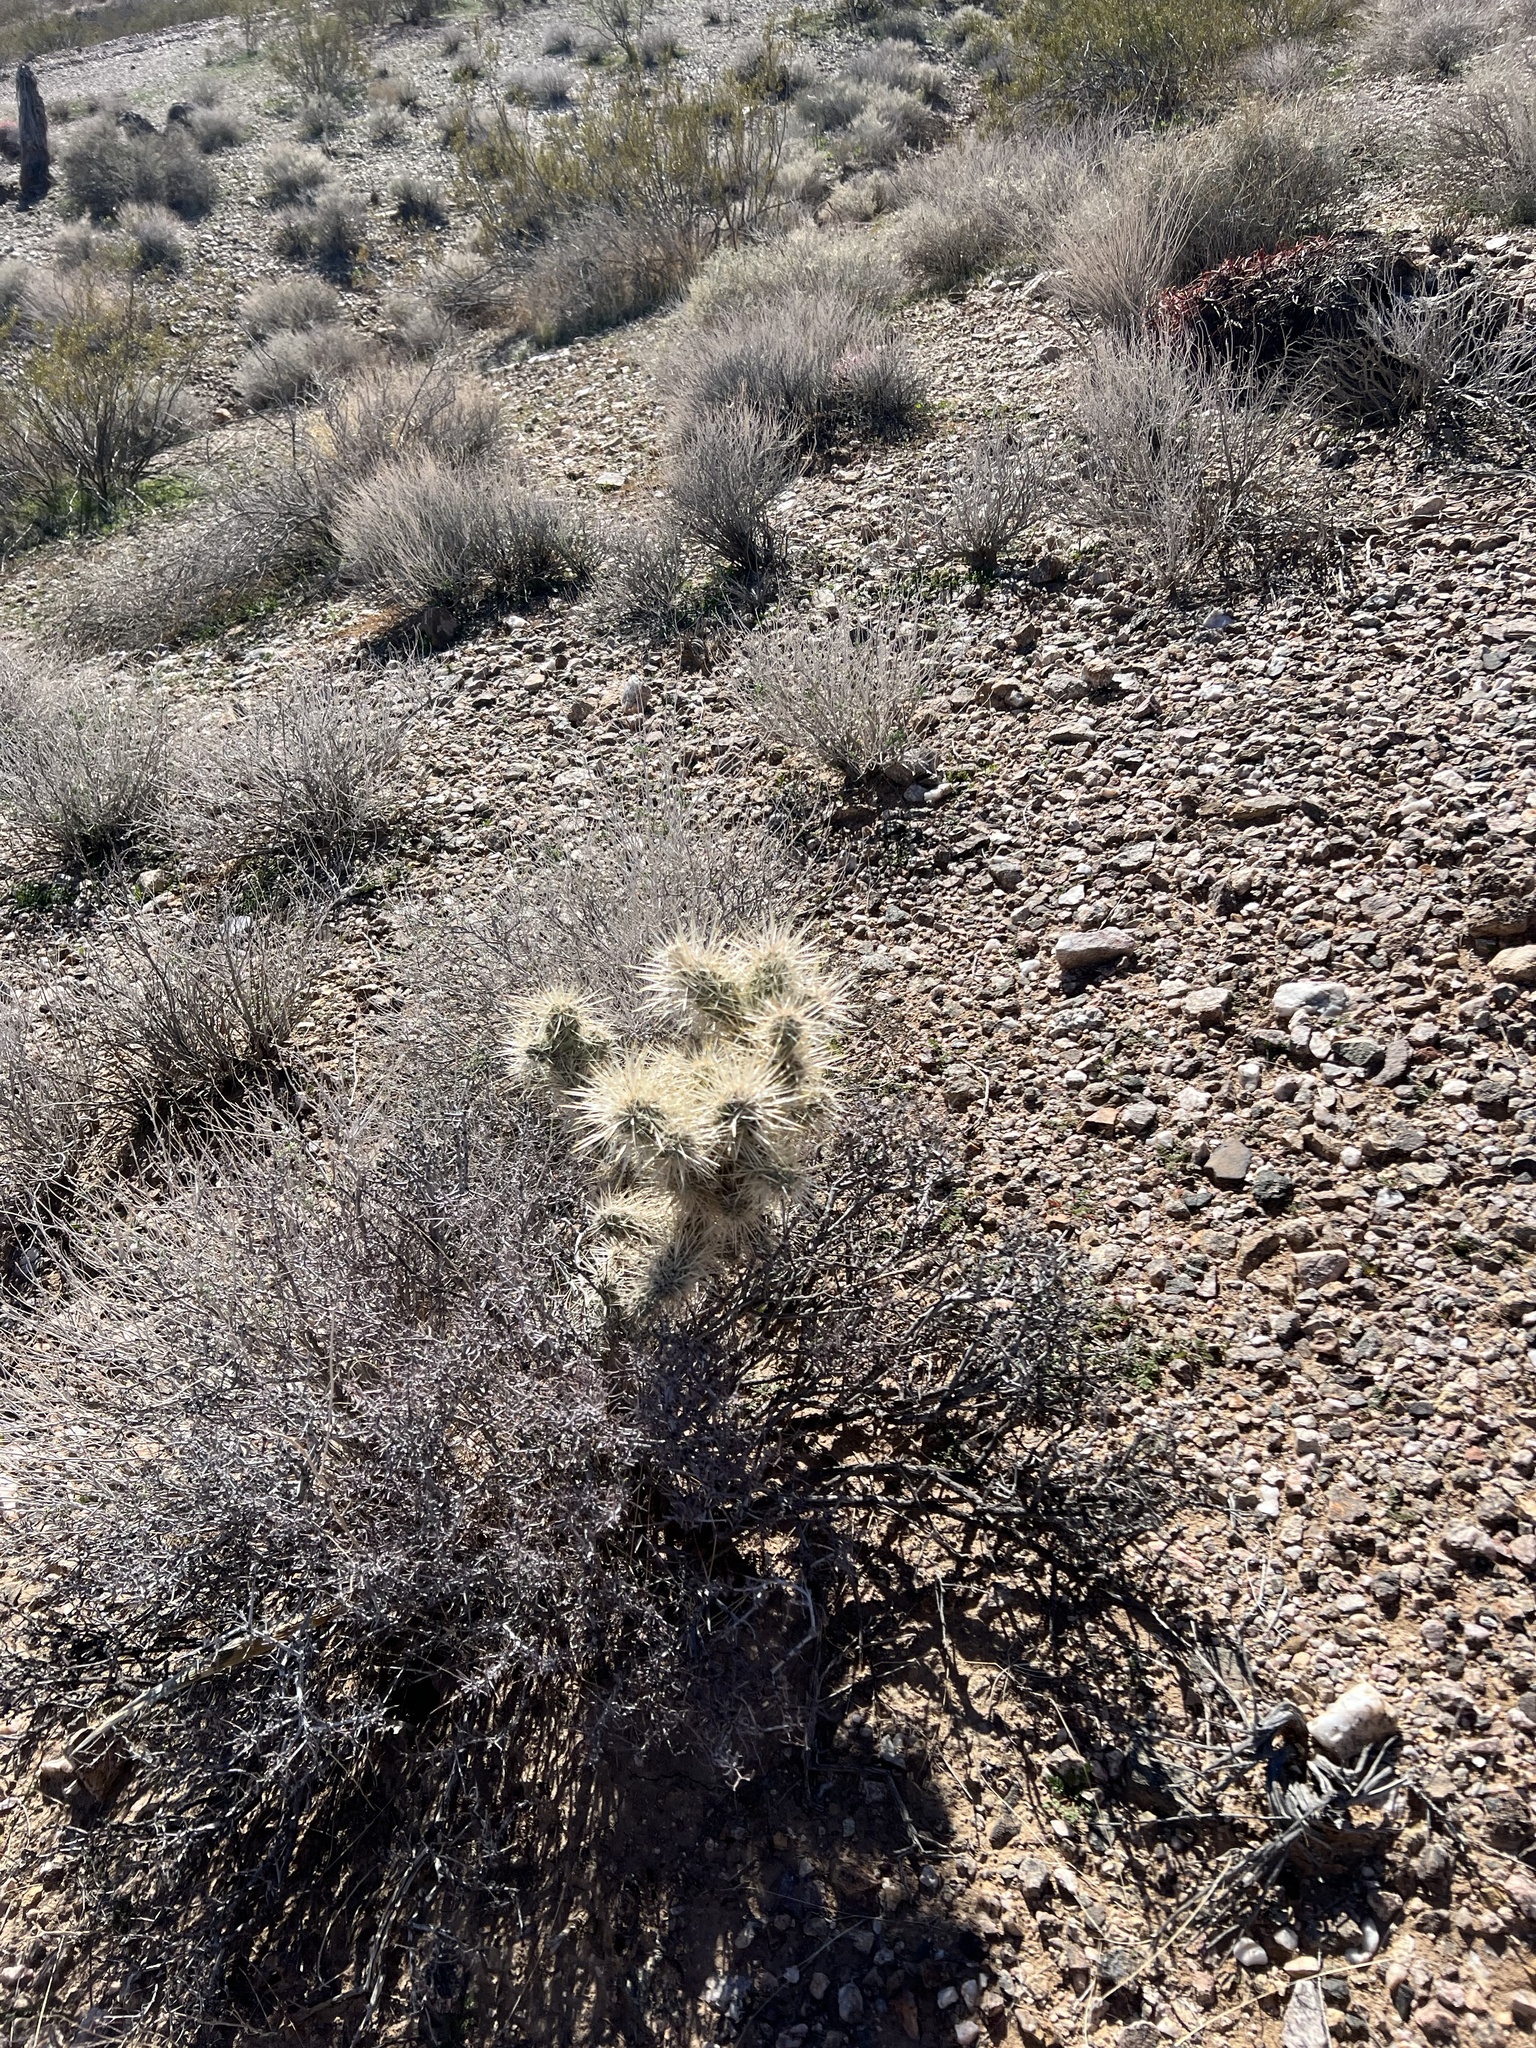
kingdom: Plantae
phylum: Tracheophyta
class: Magnoliopsida
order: Caryophyllales
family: Cactaceae
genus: Cylindropuntia
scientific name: Cylindropuntia echinocarpa
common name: Ground cholla
